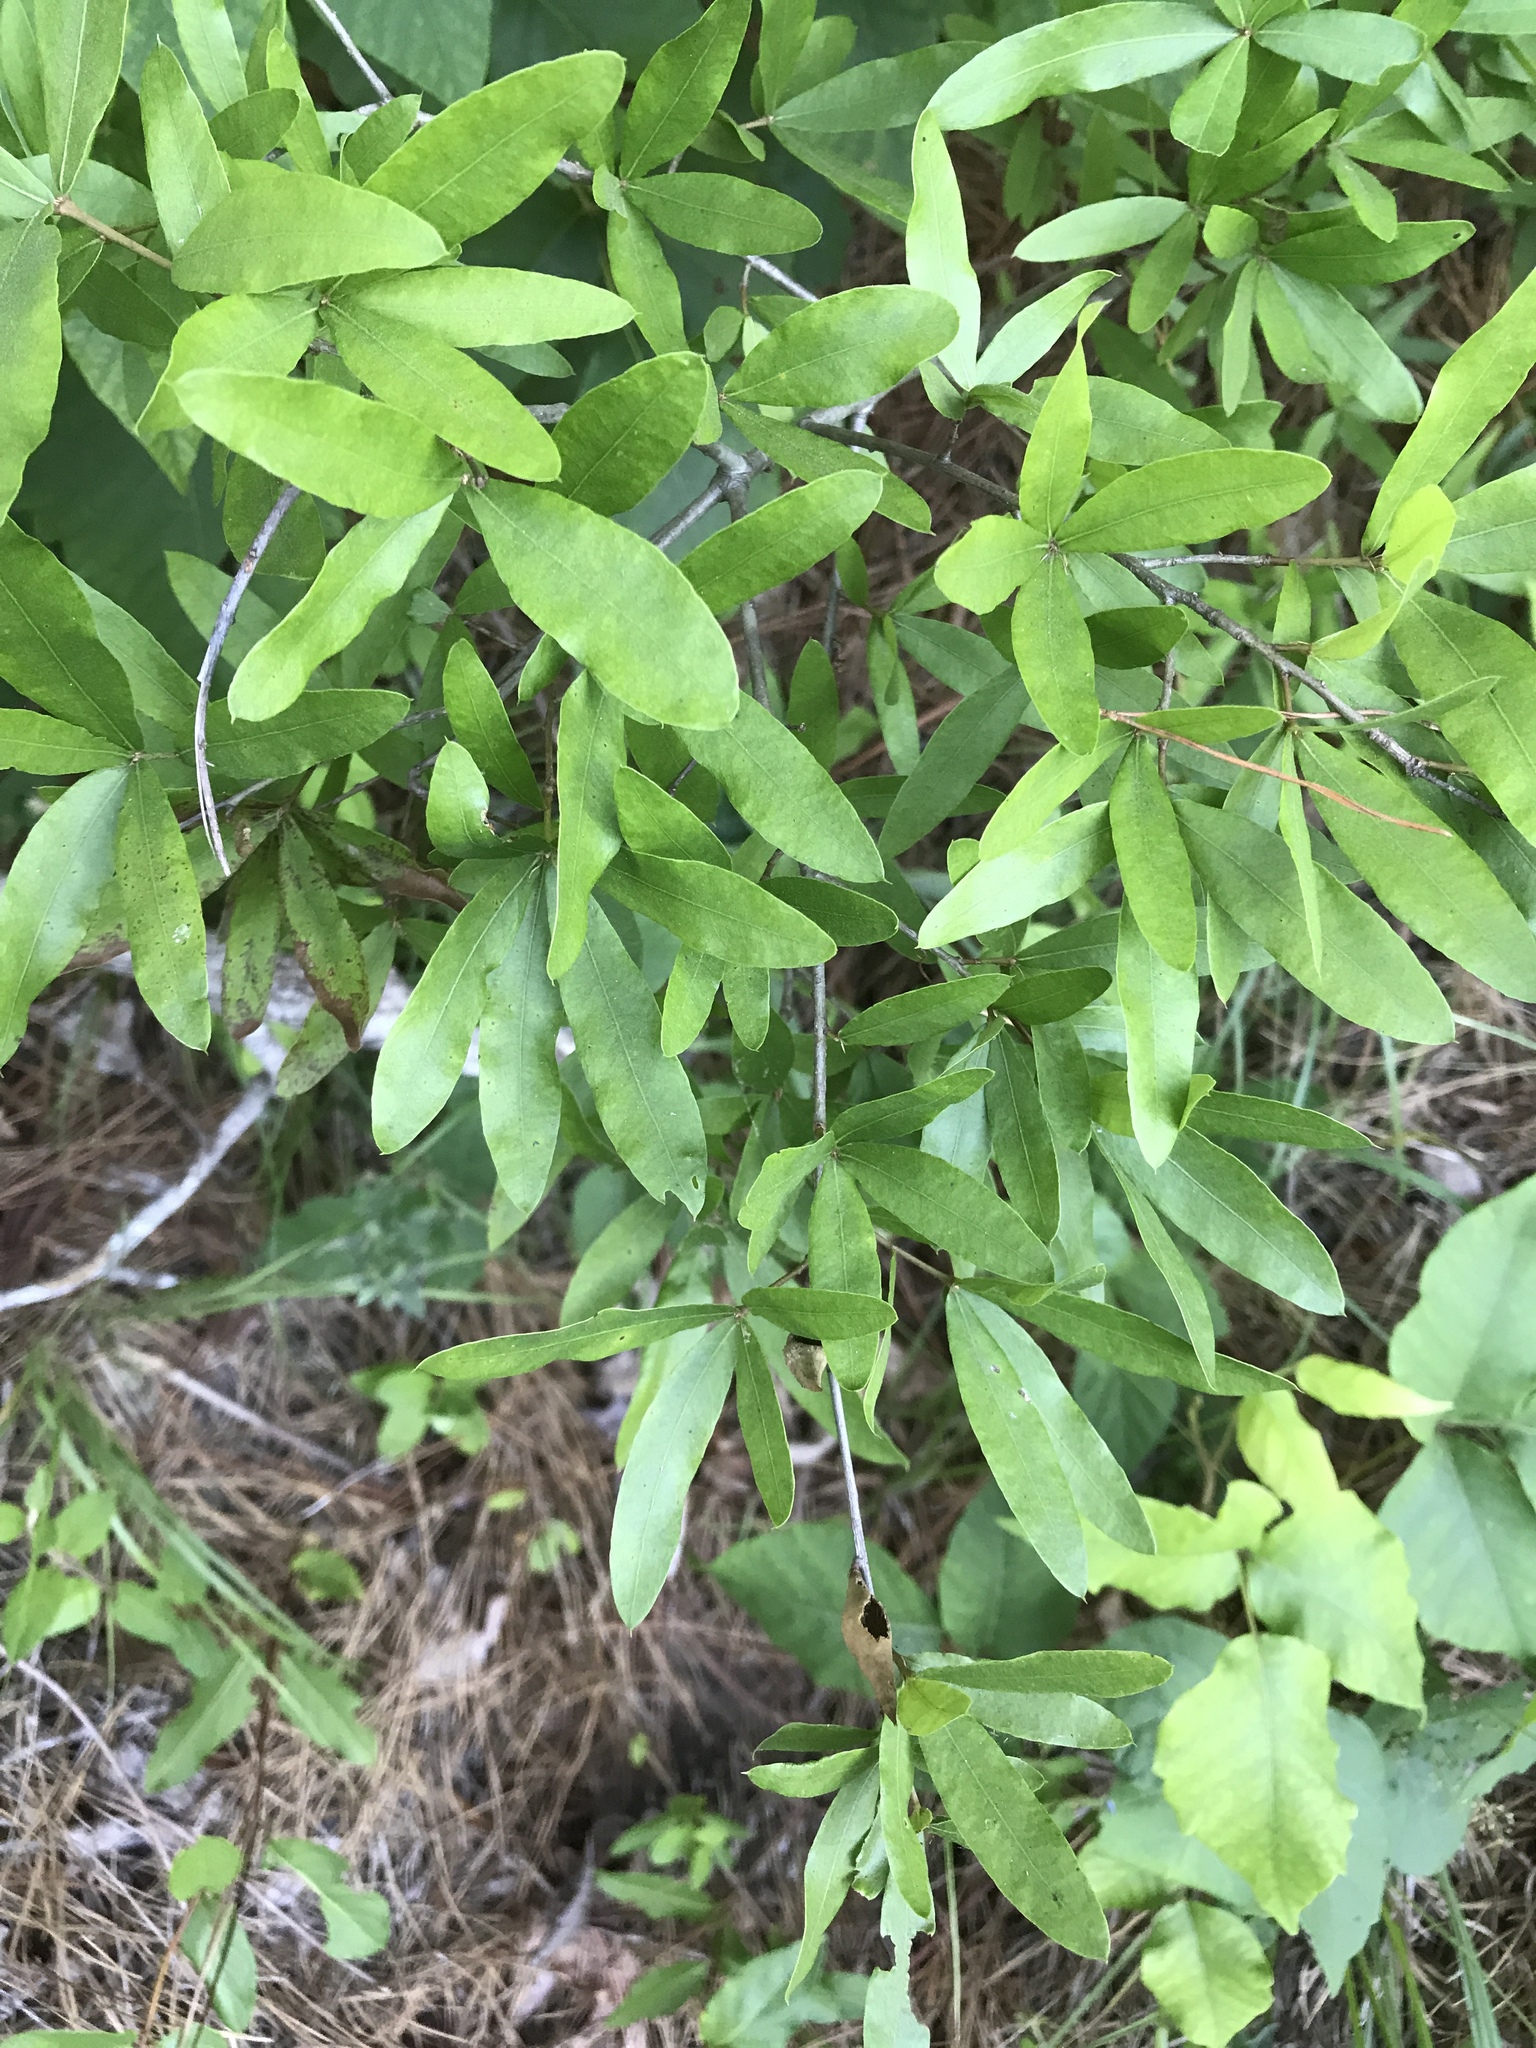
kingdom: Plantae
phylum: Tracheophyta
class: Magnoliopsida
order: Fagales
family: Fagaceae
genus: Quercus
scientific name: Quercus phellos
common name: Willow oak
